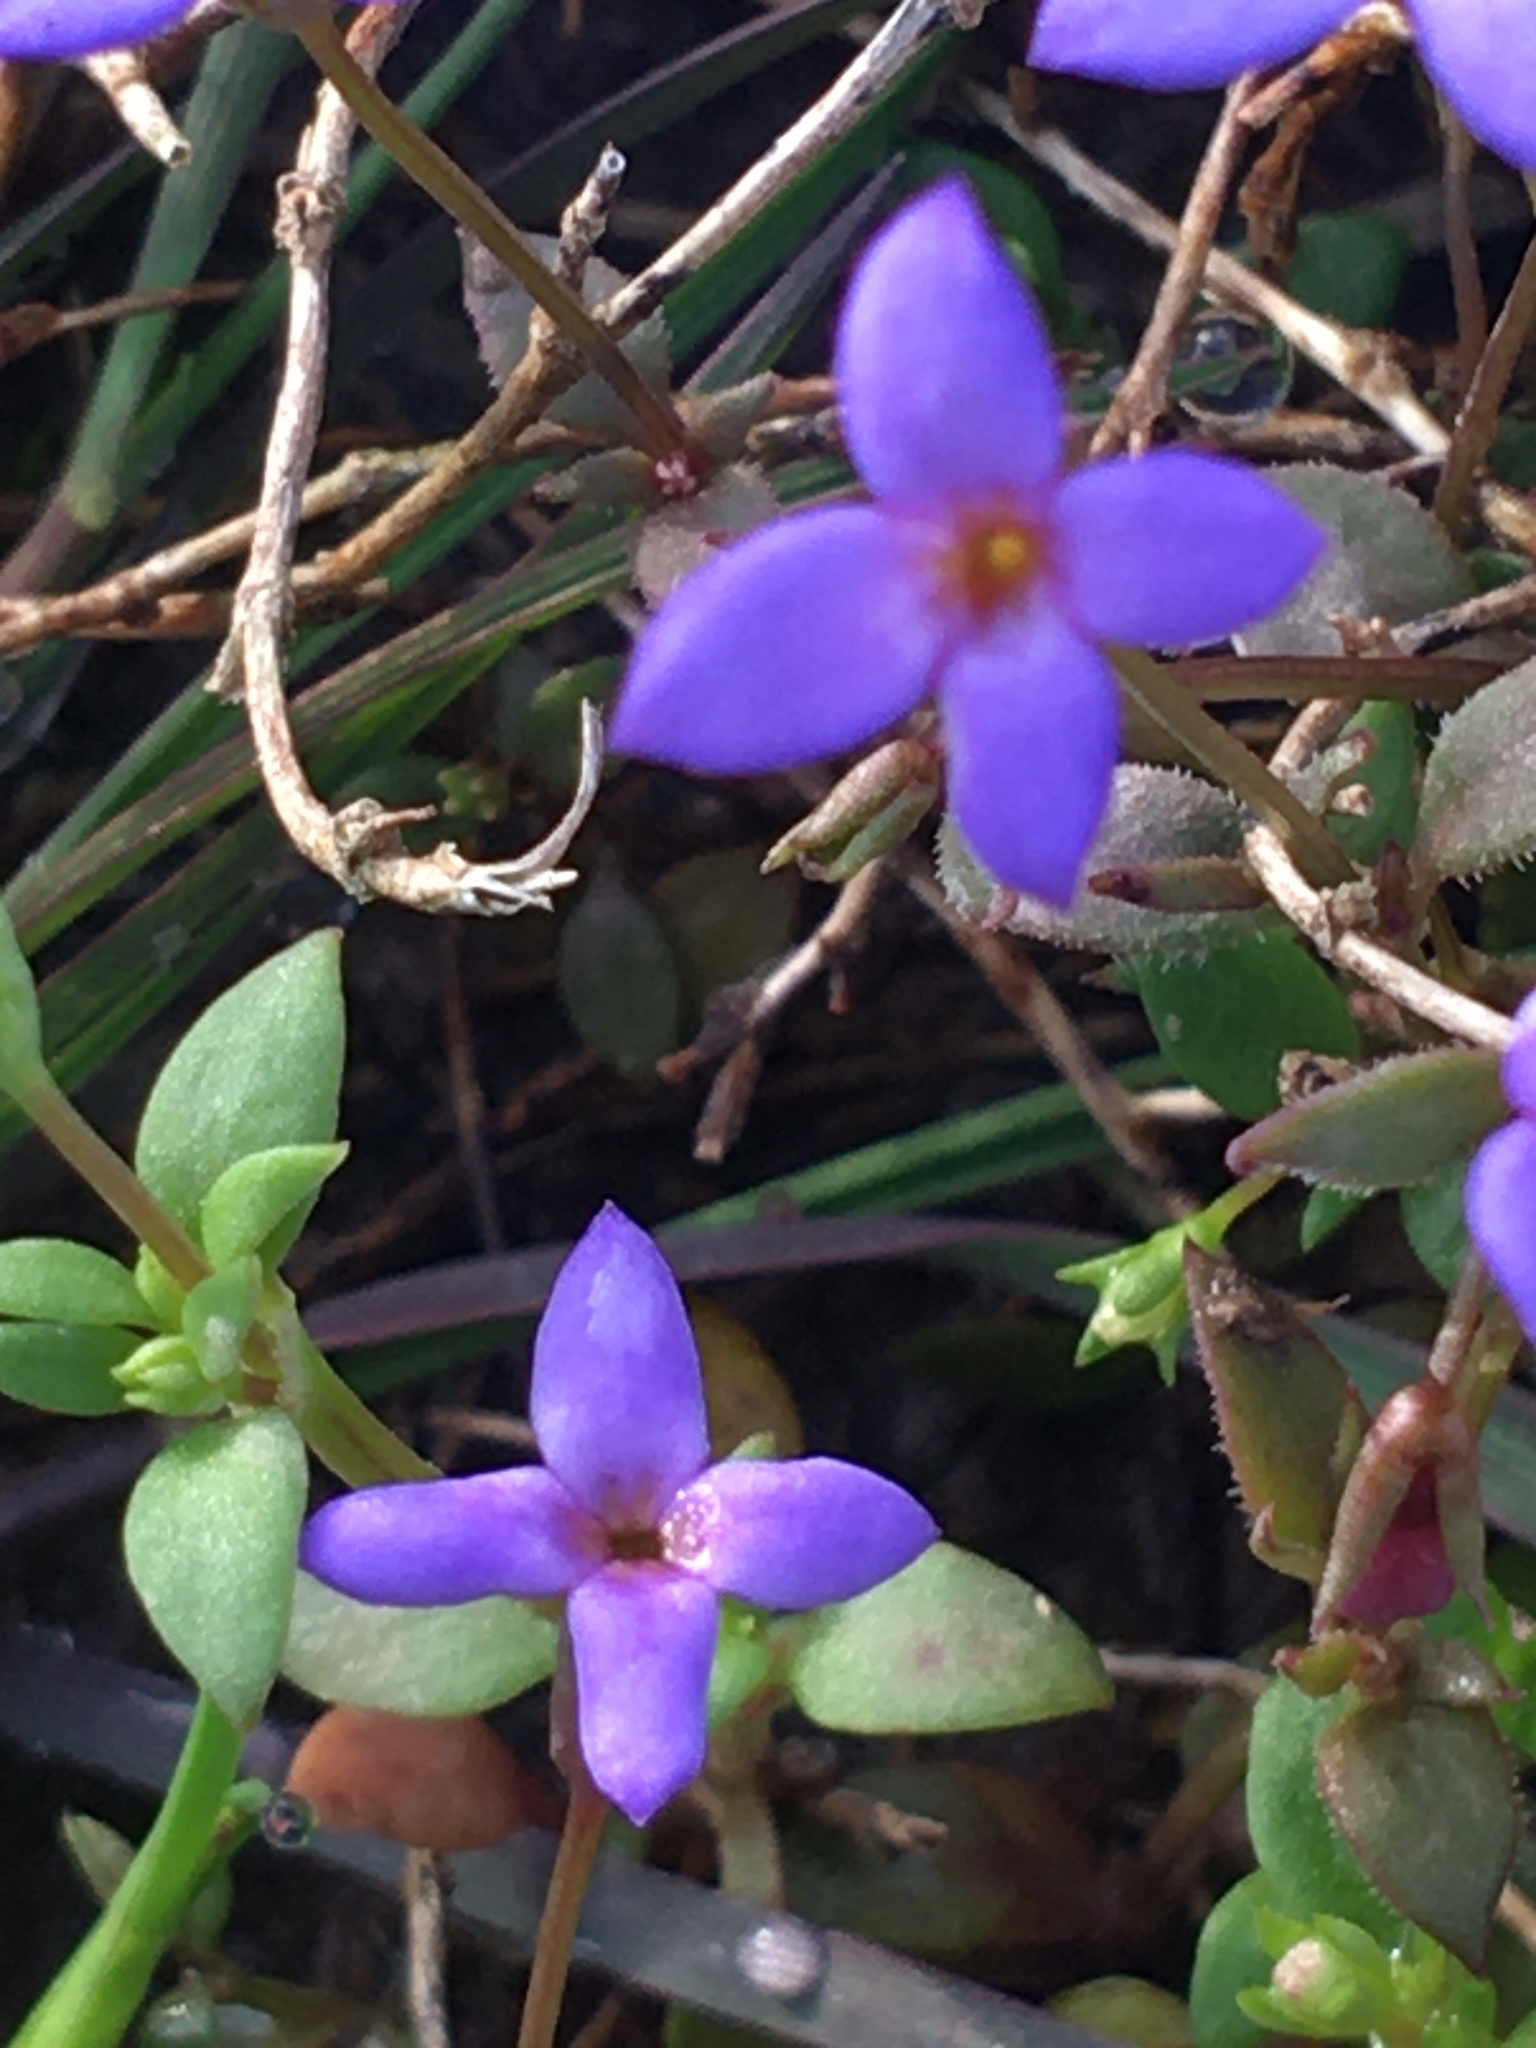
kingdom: Plantae
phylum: Tracheophyta
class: Magnoliopsida
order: Gentianales
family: Rubiaceae
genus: Houstonia
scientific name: Houstonia pusilla
